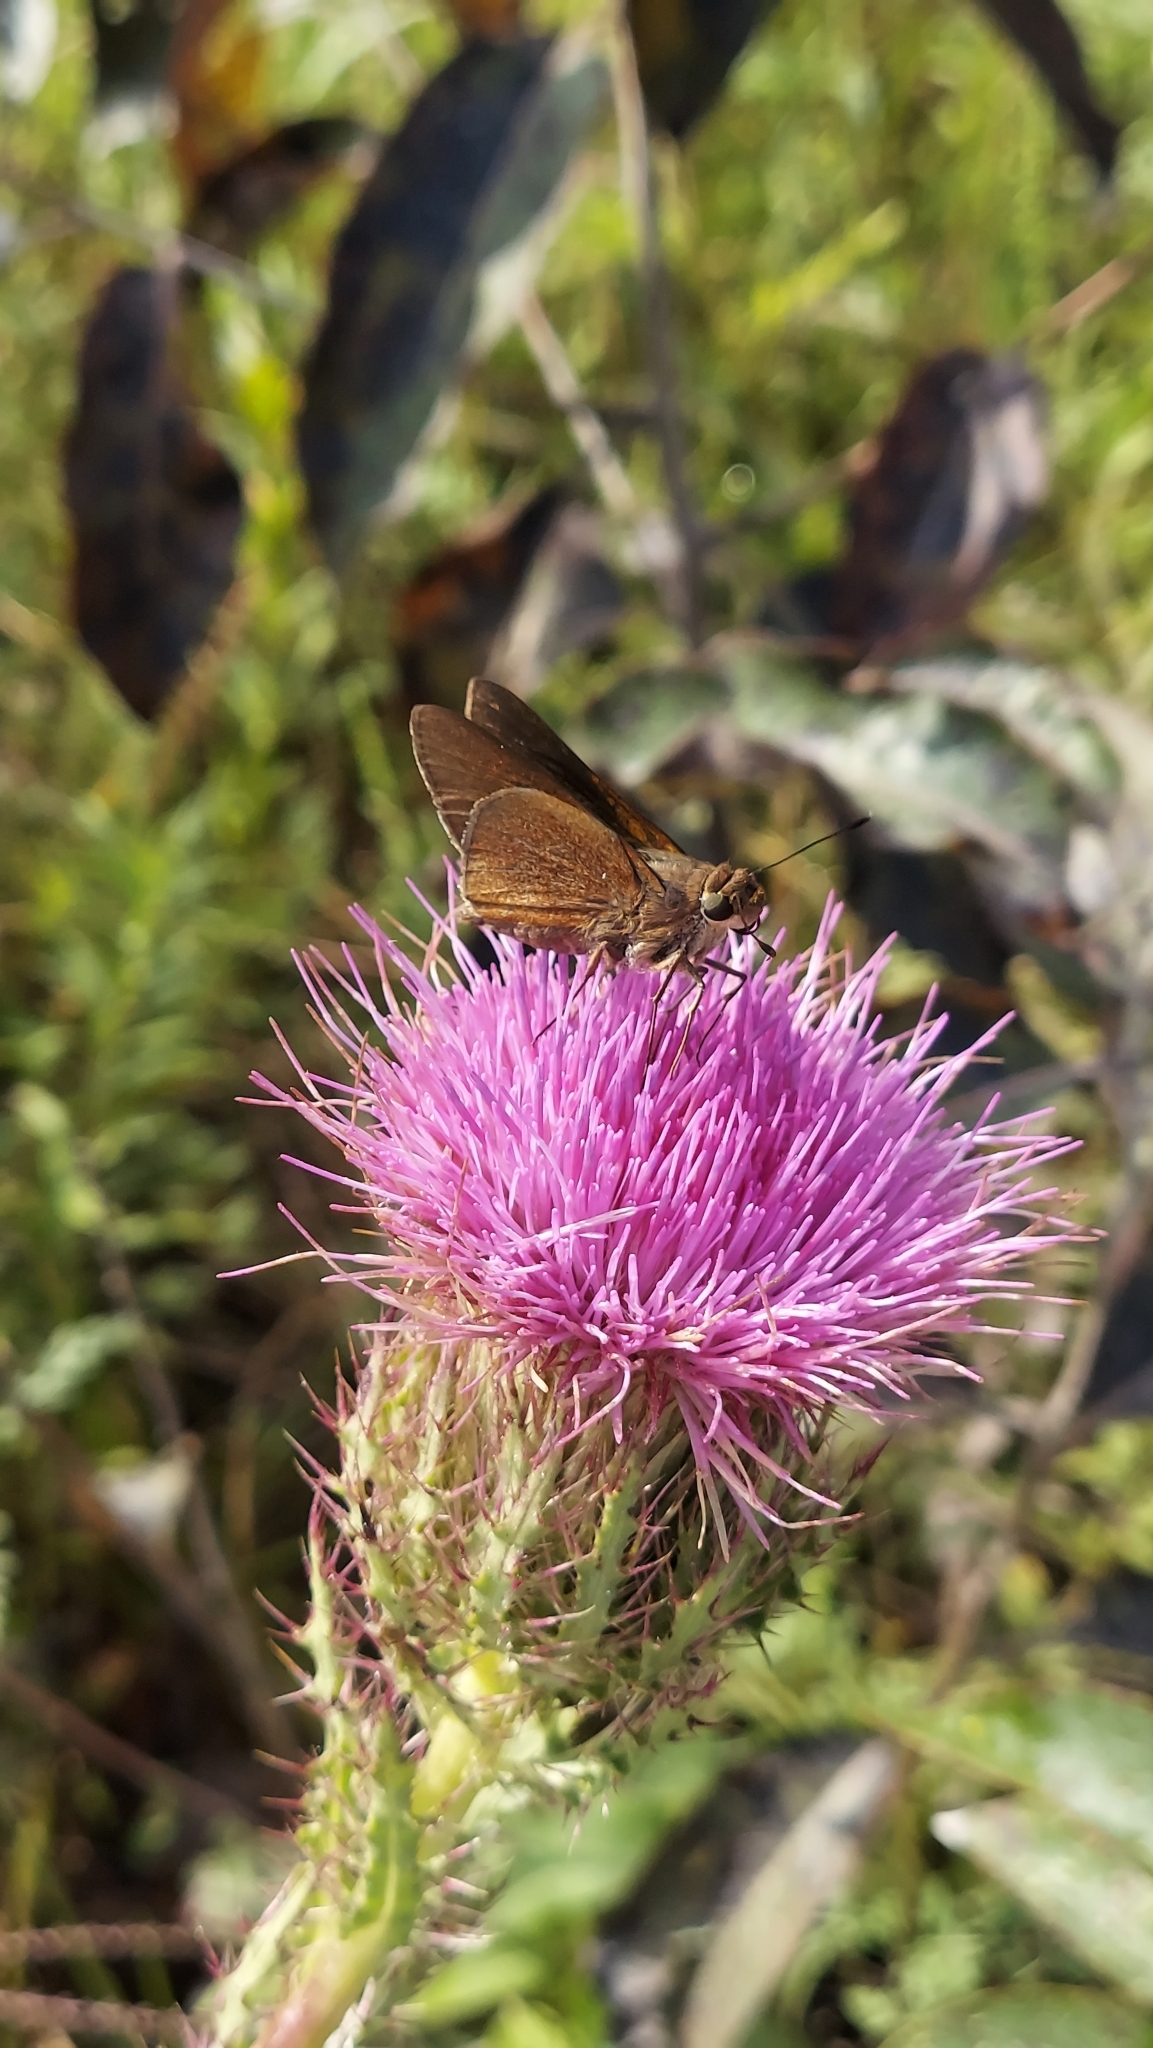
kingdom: Animalia
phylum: Arthropoda
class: Insecta
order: Lepidoptera
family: Hesperiidae
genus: Asbolis
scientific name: Asbolis capucinus
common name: Monk skipper
